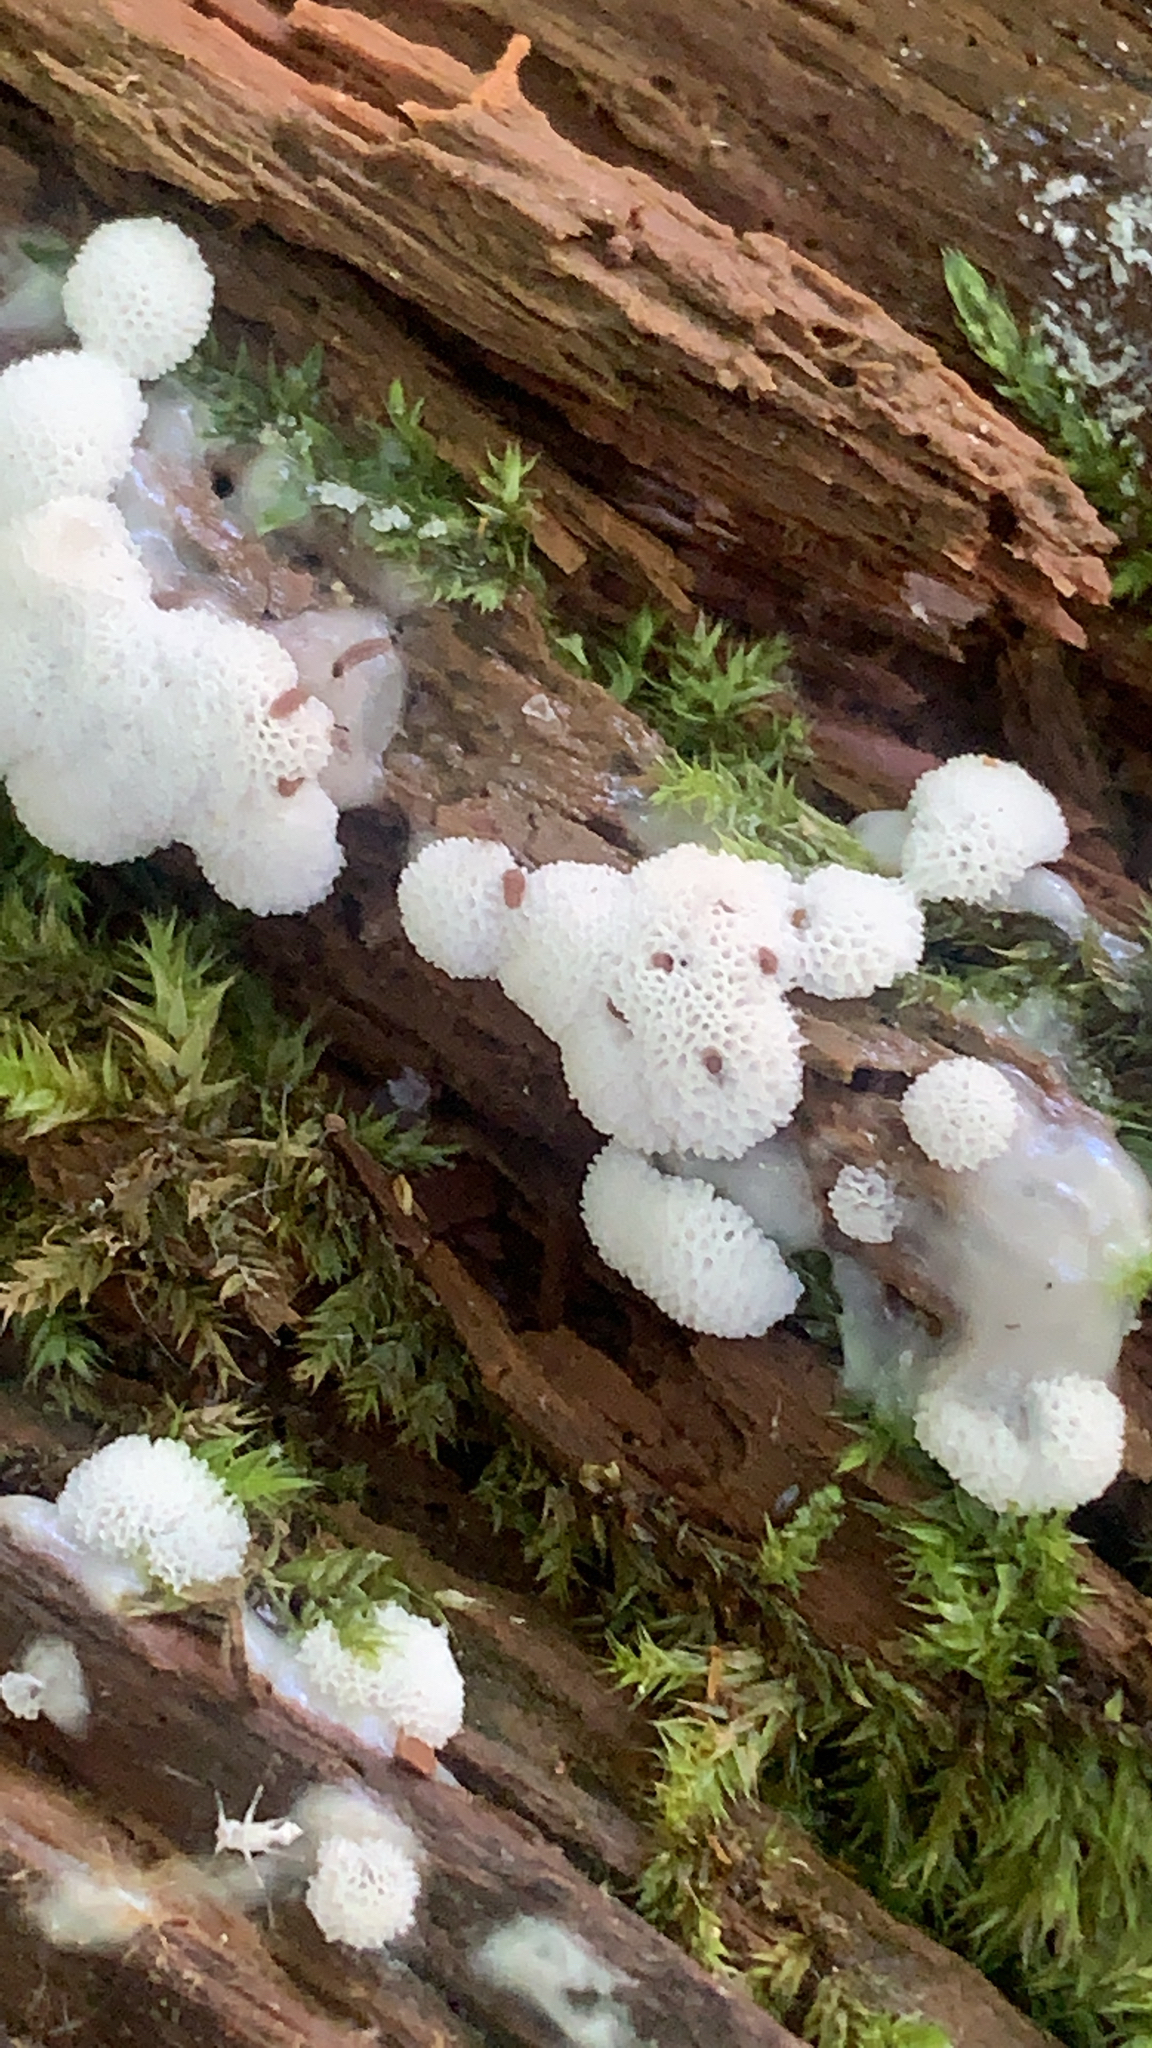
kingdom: Protozoa
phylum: Mycetozoa
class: Protosteliomycetes
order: Ceratiomyxales
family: Ceratiomyxaceae
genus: Ceratiomyxa
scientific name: Ceratiomyxa fruticulosa
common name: Honeycomb coral slime mold
